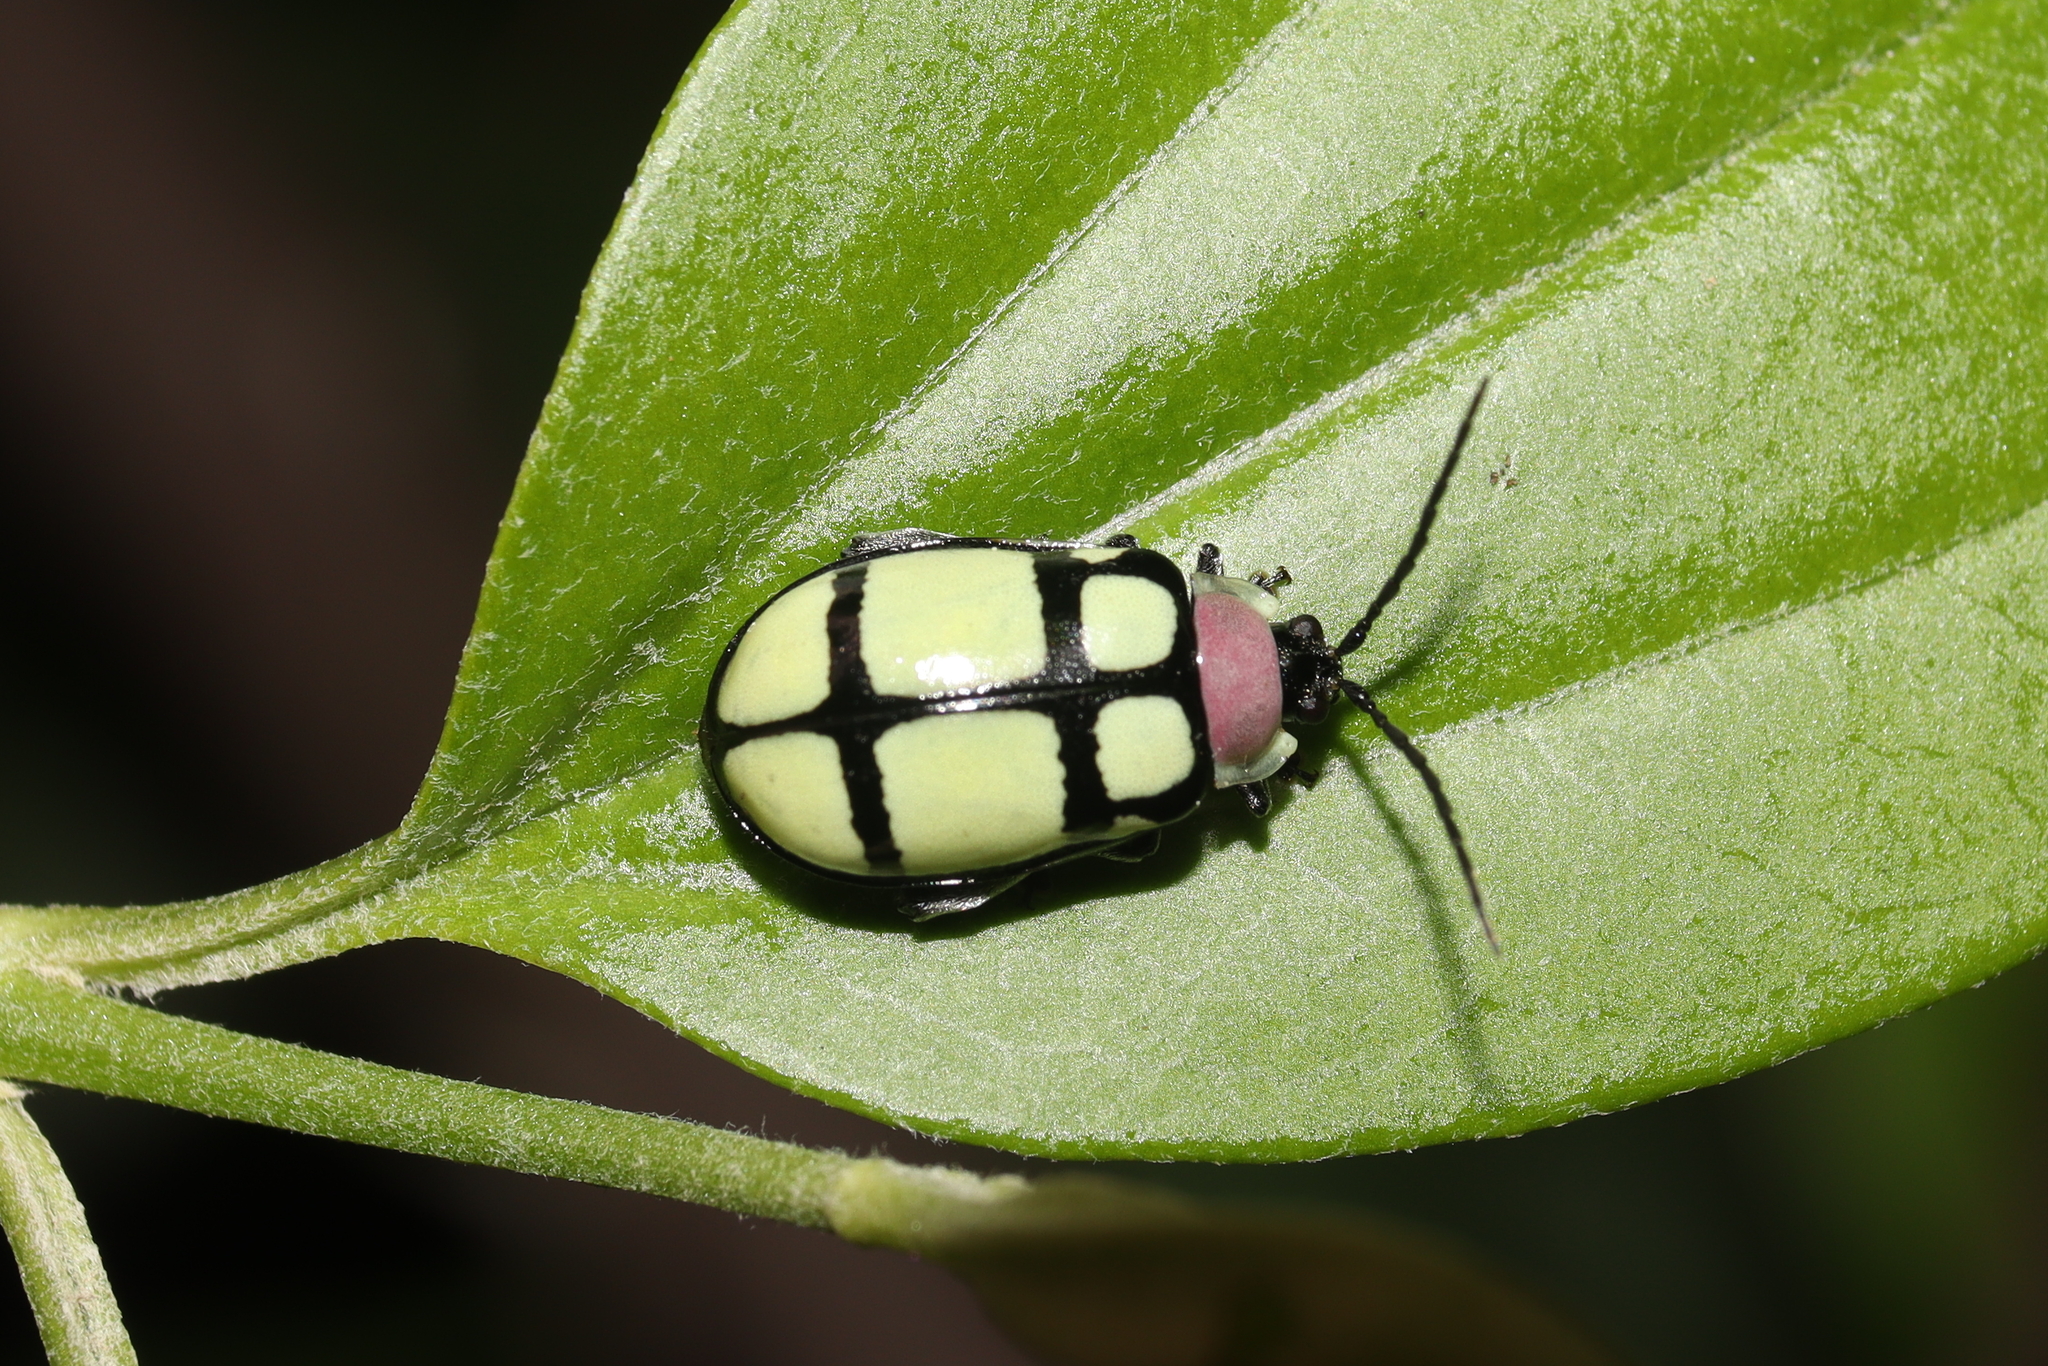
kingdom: Animalia
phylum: Arthropoda
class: Insecta
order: Coleoptera
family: Chrysomelidae
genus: Alagoasa
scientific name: Alagoasa
